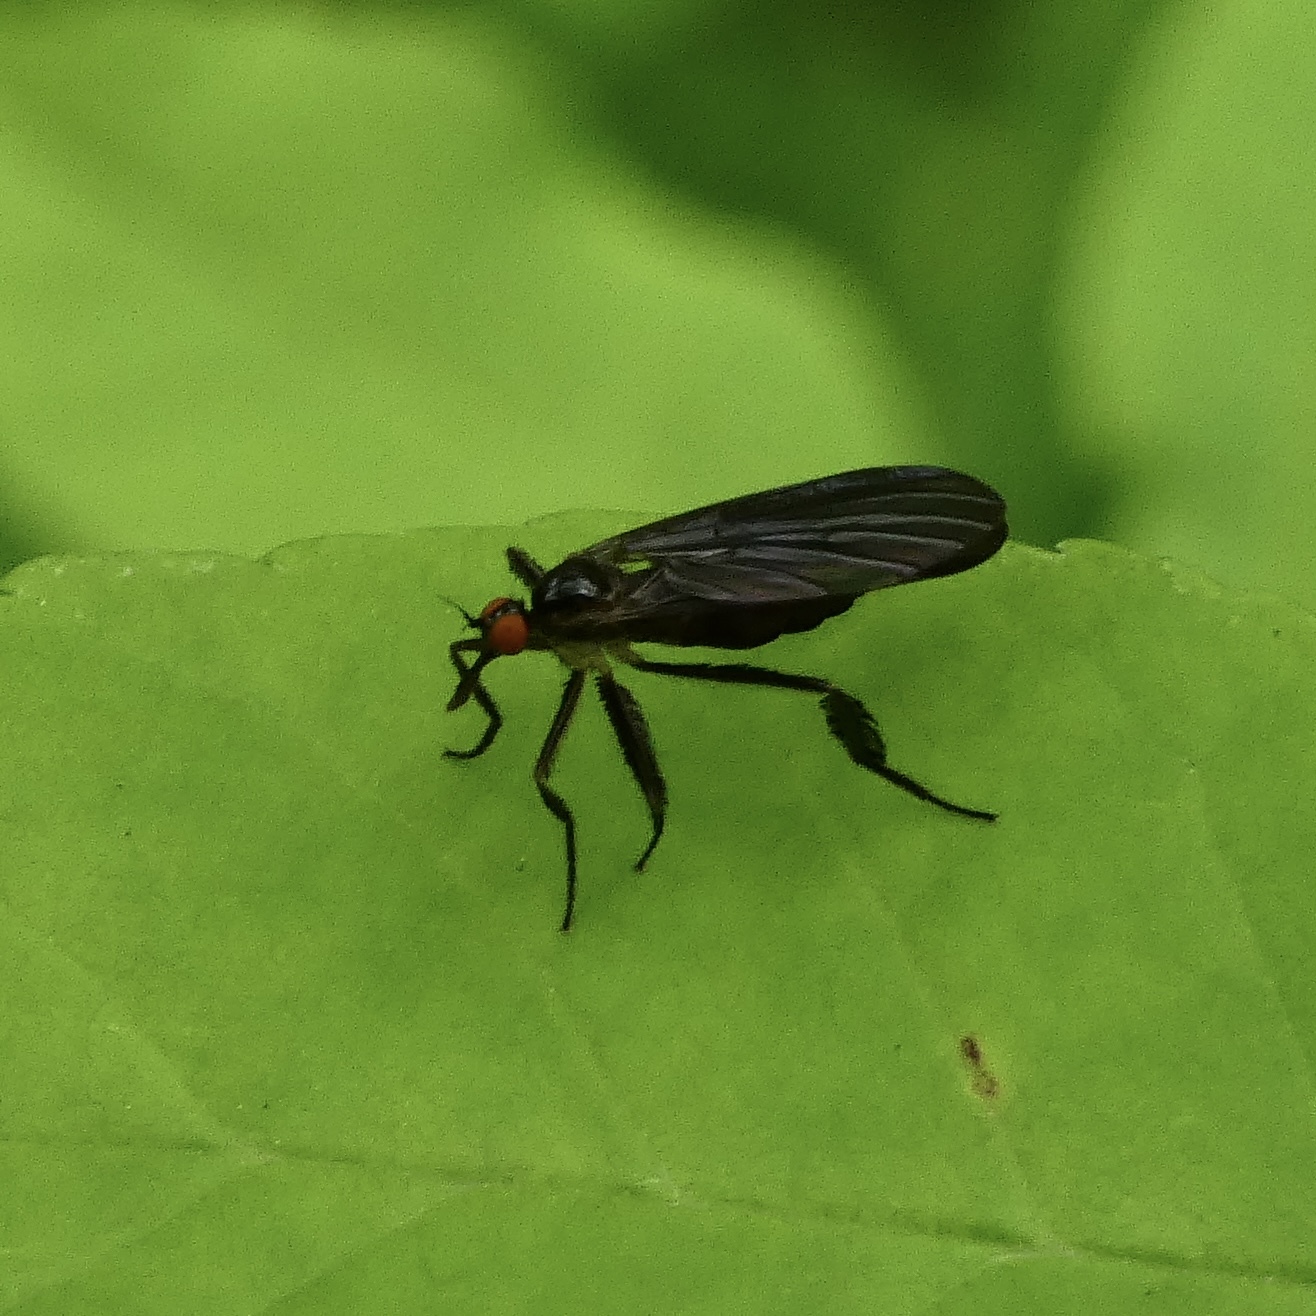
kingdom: Animalia
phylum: Arthropoda
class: Insecta
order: Diptera
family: Empididae
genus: Rhamphomyia
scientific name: Rhamphomyia longicauda
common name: Long-tailed dance fly
